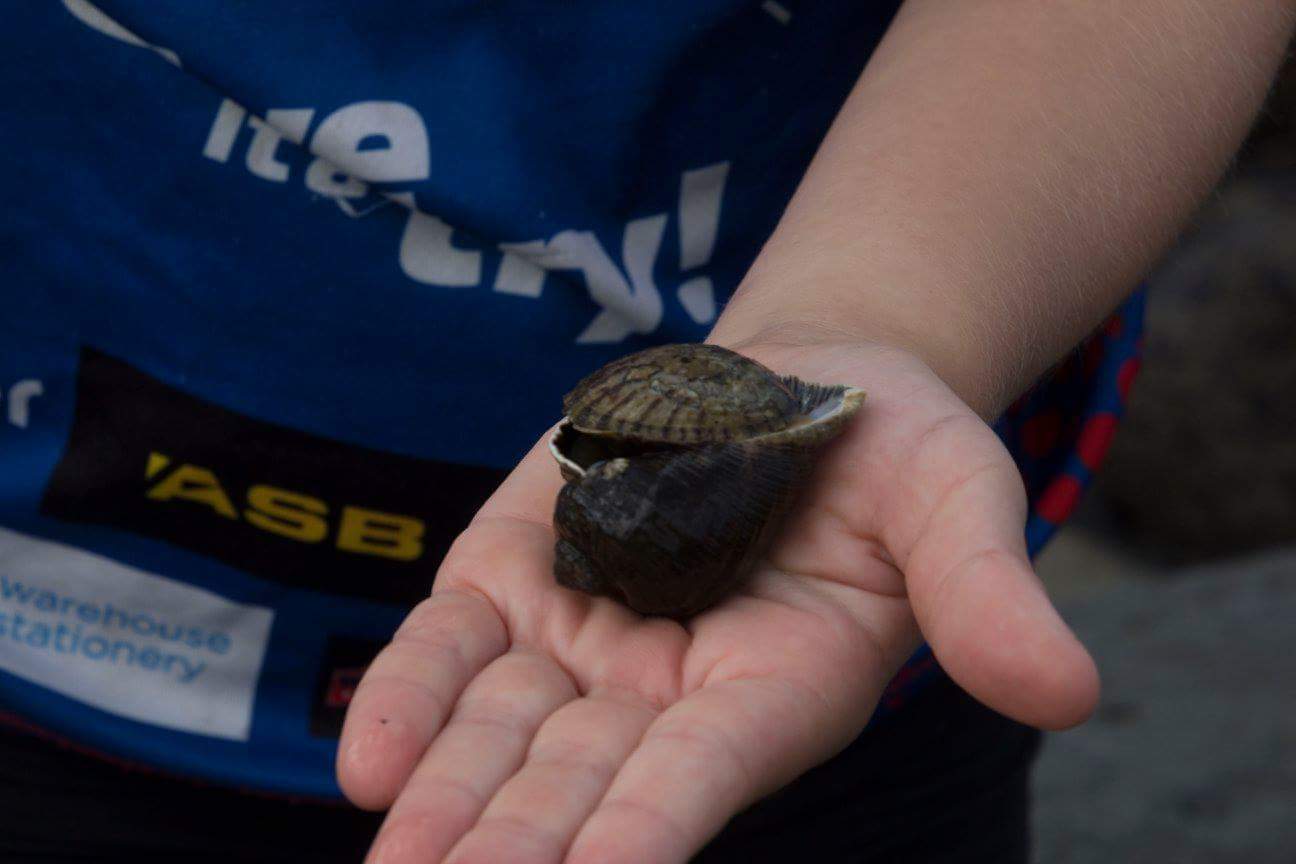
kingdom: Animalia
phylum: Mollusca
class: Gastropoda
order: Neogastropoda
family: Muricidae
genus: Haustrum
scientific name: Haustrum haustorium
